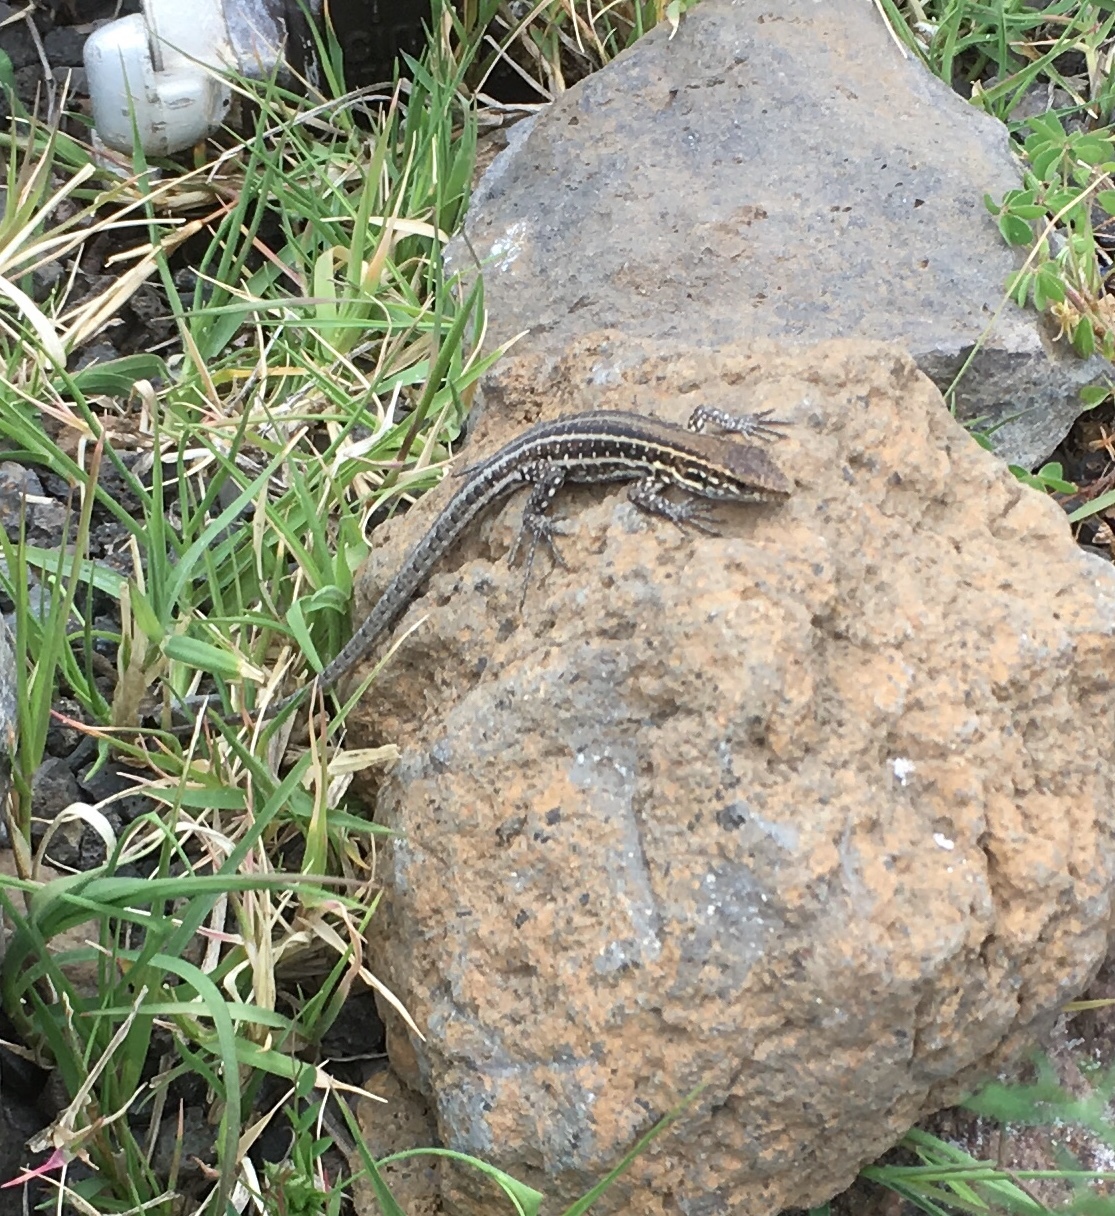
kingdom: Animalia
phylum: Chordata
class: Squamata
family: Lacertidae
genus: Gallotia
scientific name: Gallotia galloti
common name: Gallot's lizard
